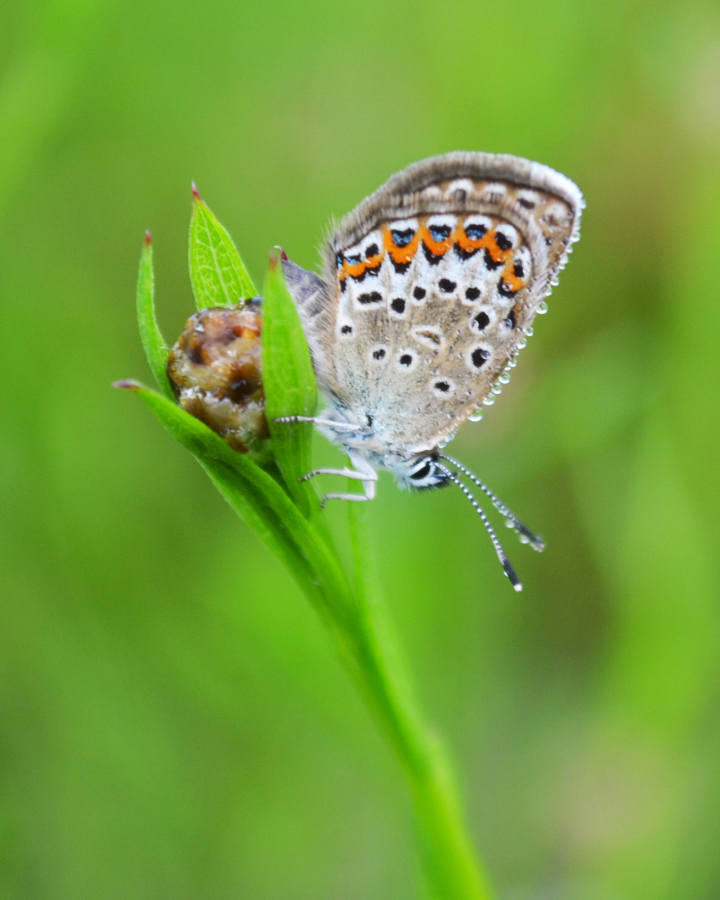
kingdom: Animalia
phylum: Arthropoda
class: Insecta
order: Lepidoptera
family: Lycaenidae
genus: Plebejus
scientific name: Plebejus argus
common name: Silver-studded blue
